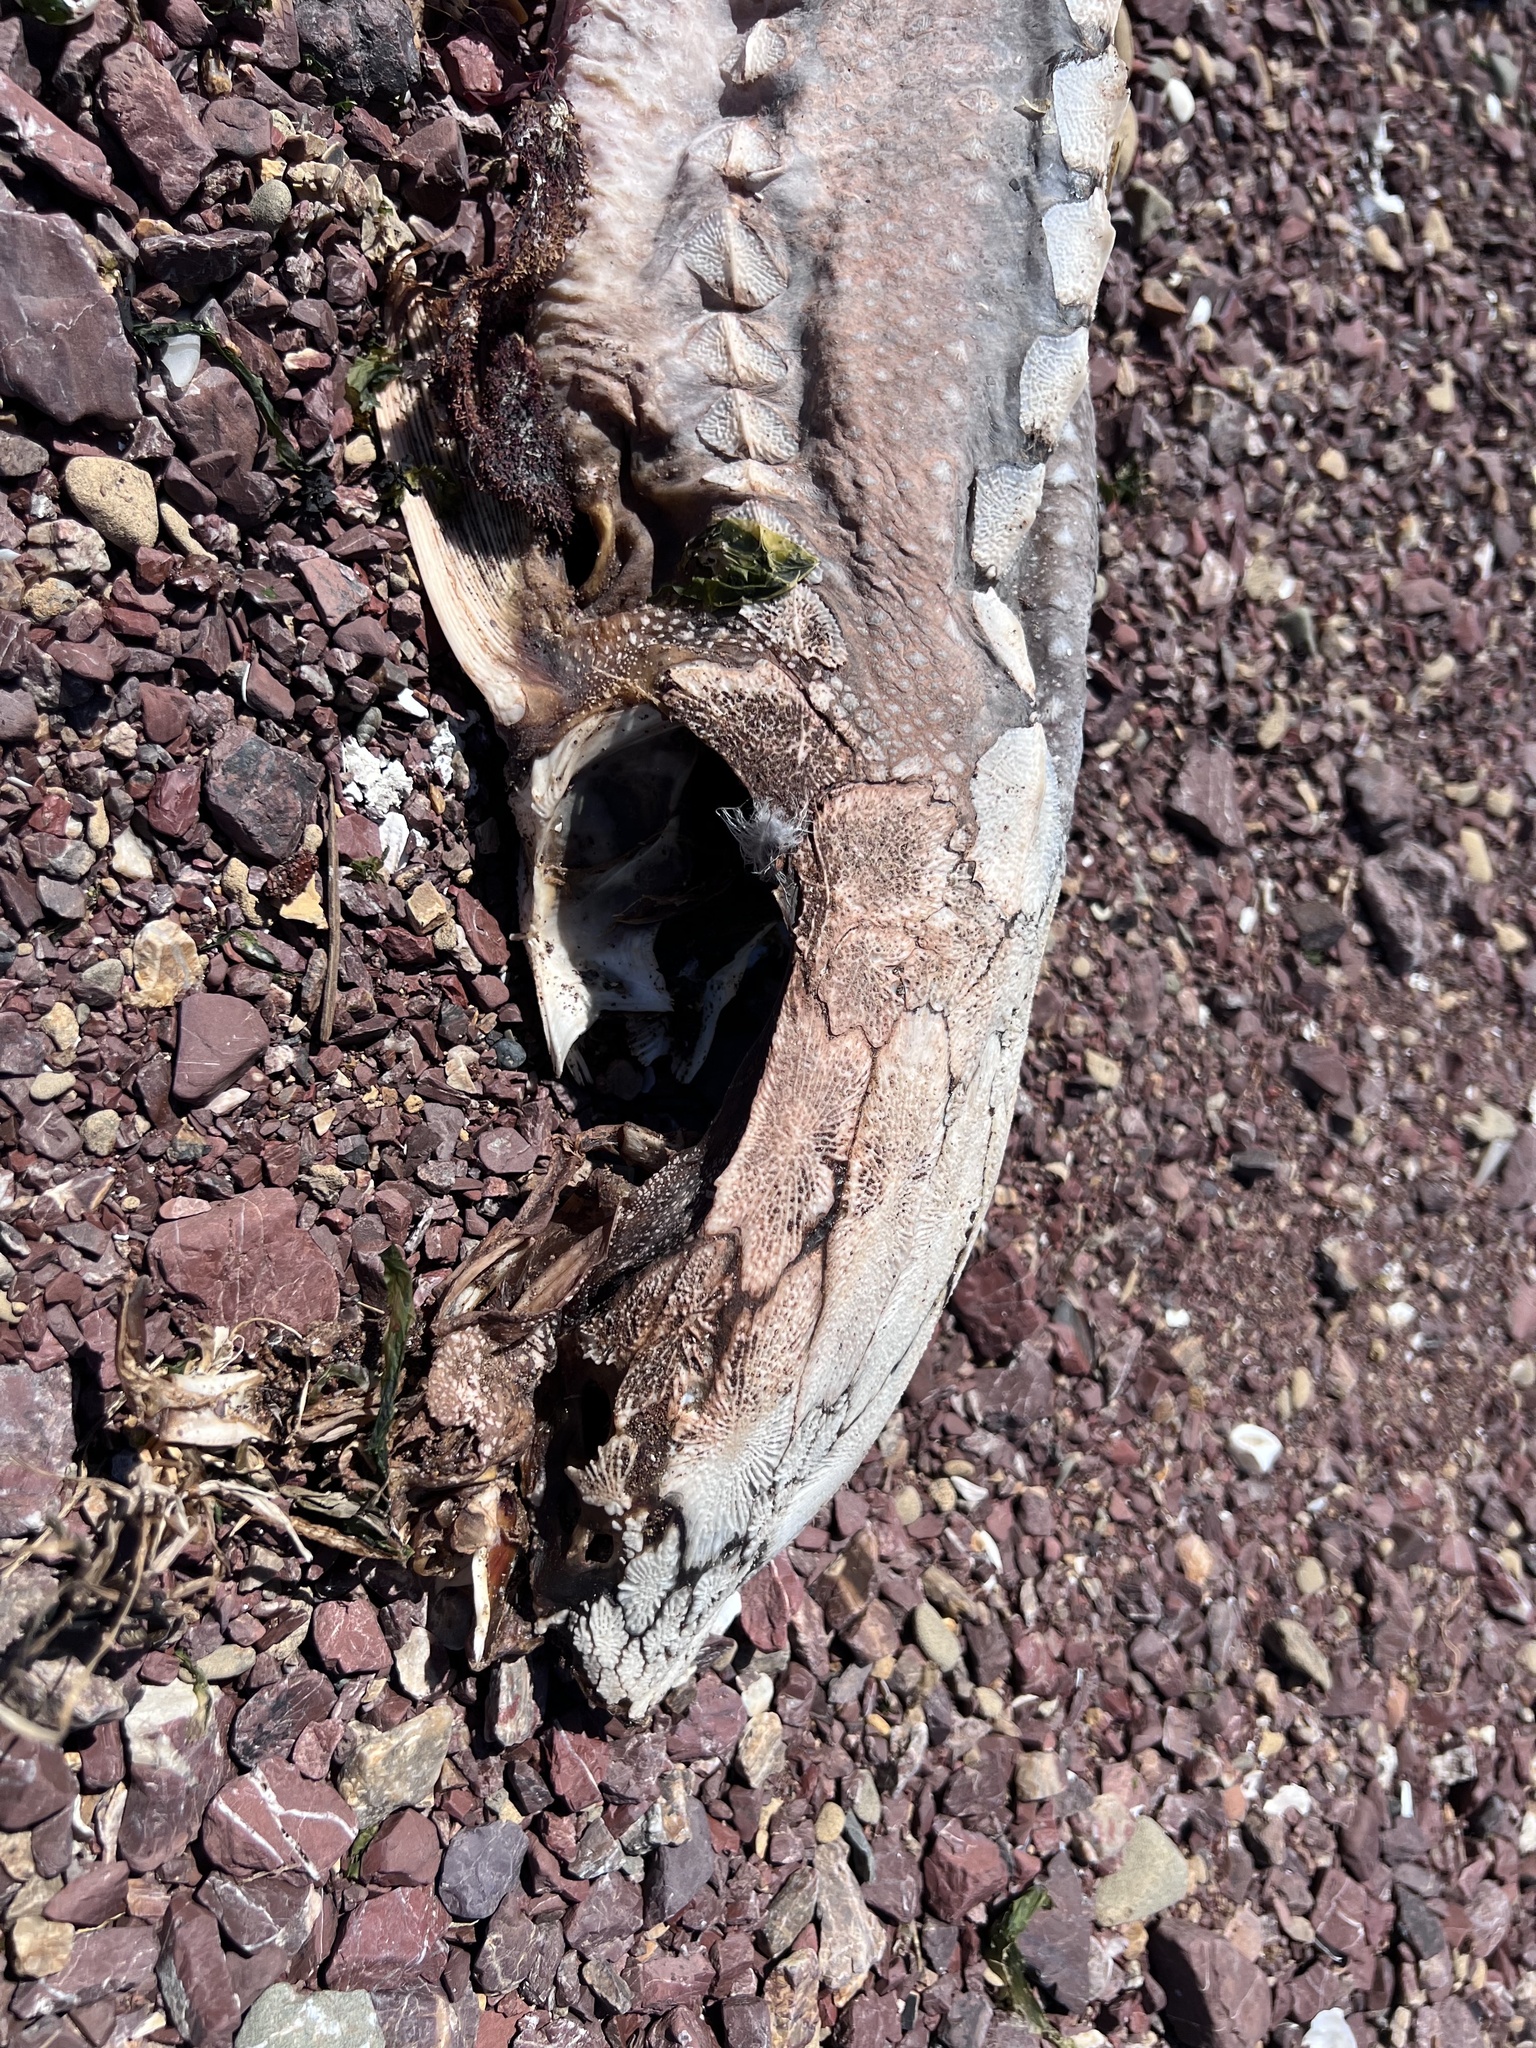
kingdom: Animalia
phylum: Chordata
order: Acipenseriformes
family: Acipenseridae
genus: Acipenser
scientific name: Acipenser transmontanus
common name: White sturgeon
